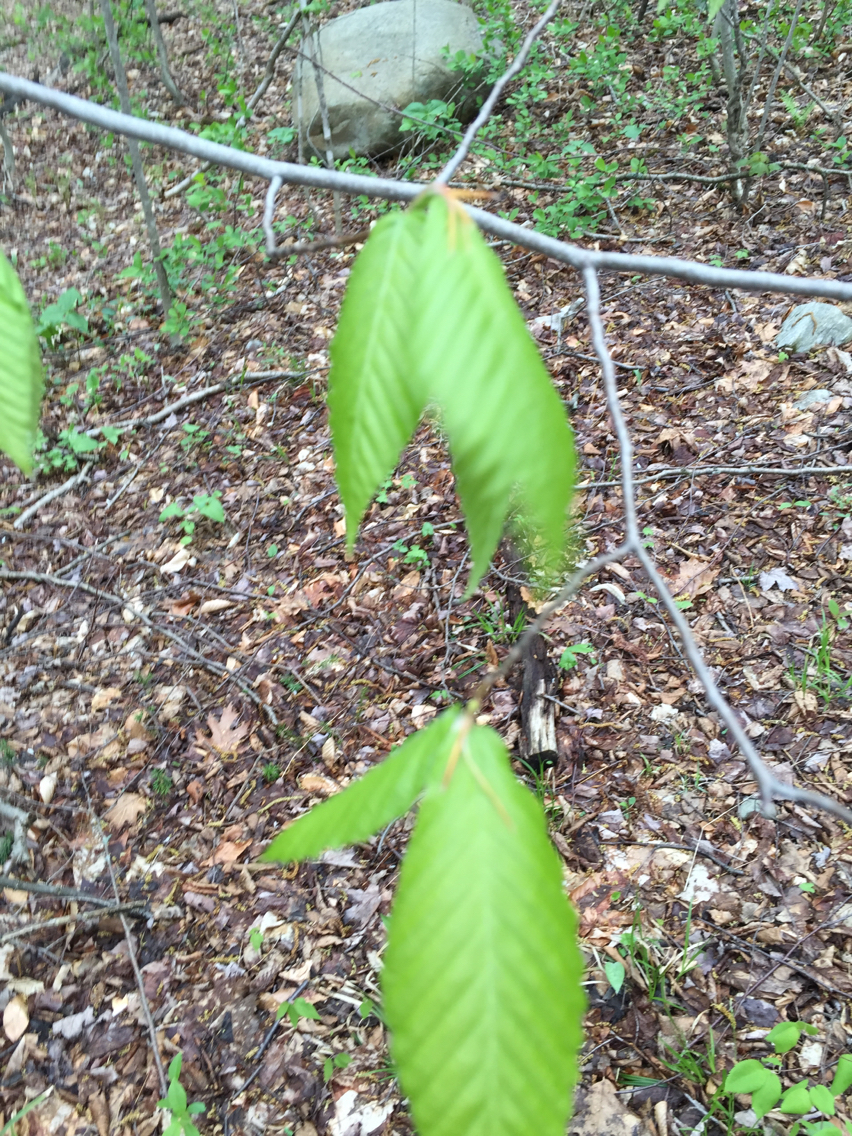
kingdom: Plantae
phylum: Tracheophyta
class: Magnoliopsida
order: Fagales
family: Fagaceae
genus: Fagus
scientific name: Fagus grandifolia
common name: American beech
